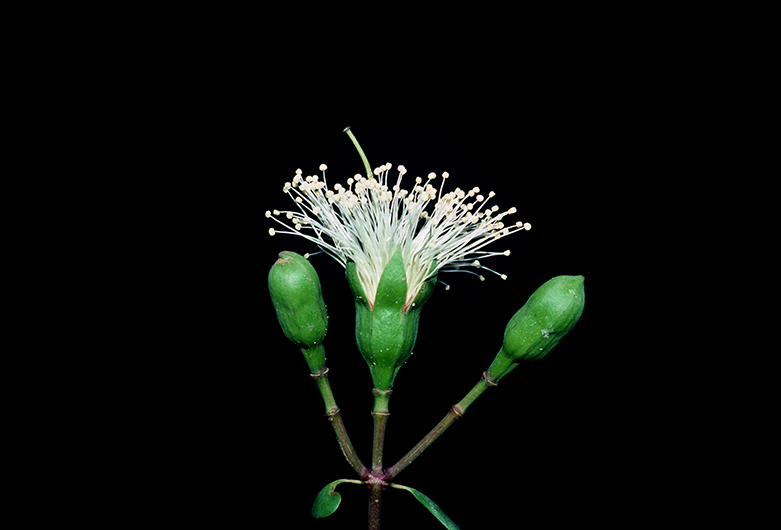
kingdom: Plantae
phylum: Tracheophyta
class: Magnoliopsida
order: Myrtales
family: Lythraceae
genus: Sonneratia
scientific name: Sonneratia alba
